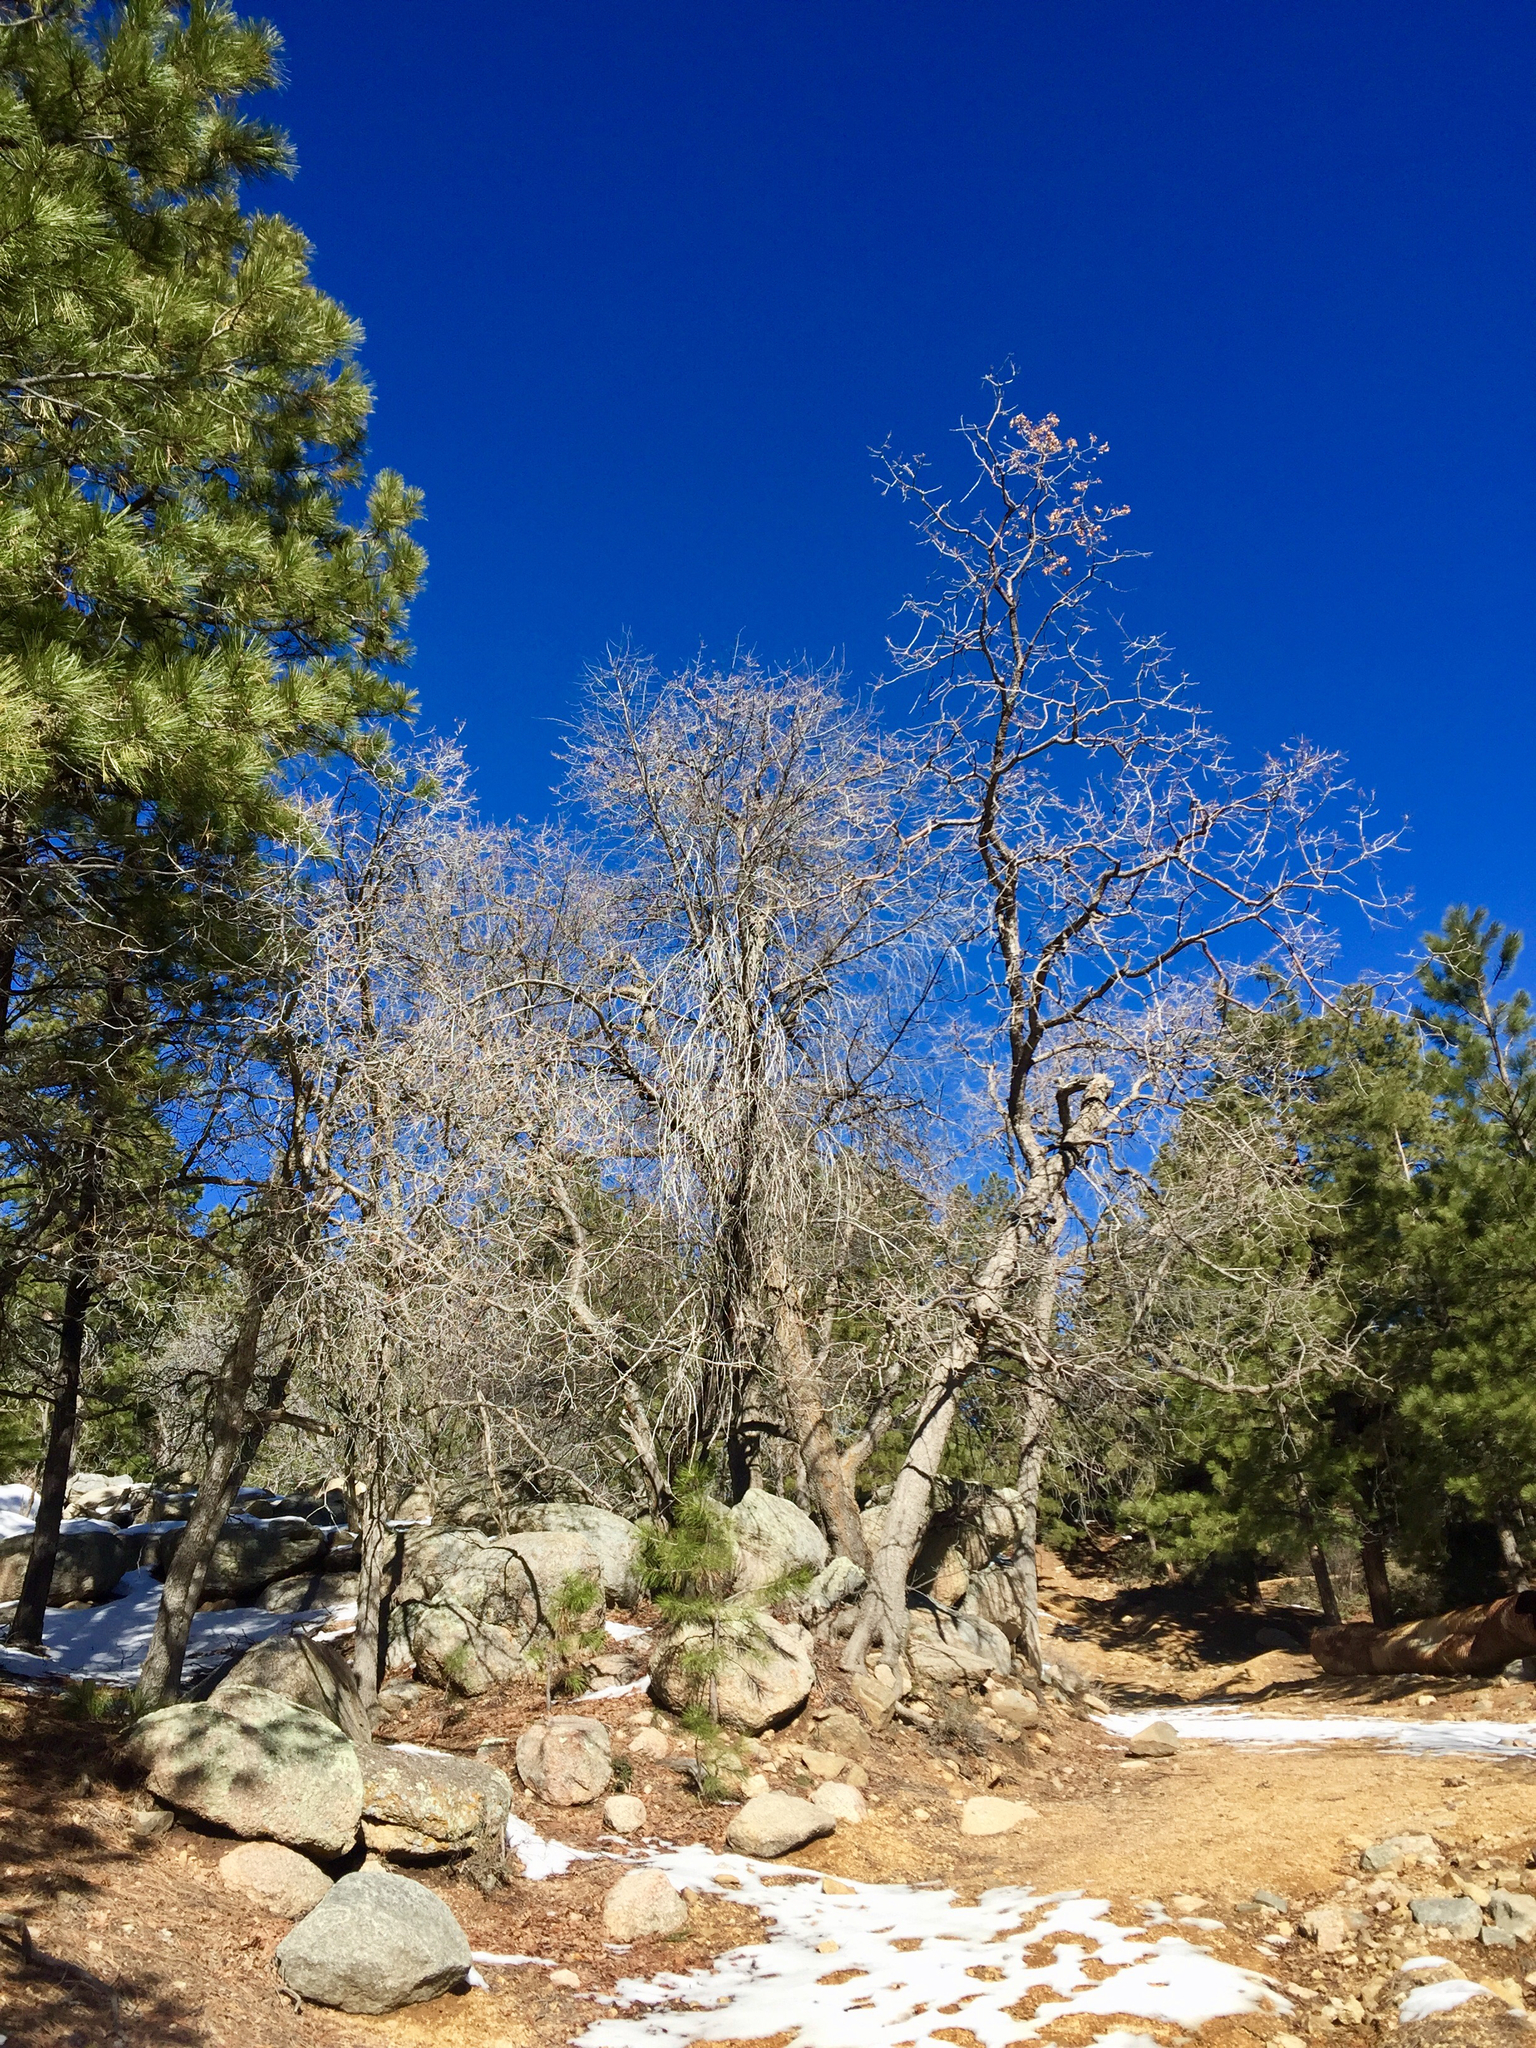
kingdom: Plantae
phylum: Tracheophyta
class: Magnoliopsida
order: Fagales
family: Fagaceae
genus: Quercus
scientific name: Quercus gambelii
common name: Gambel oak
